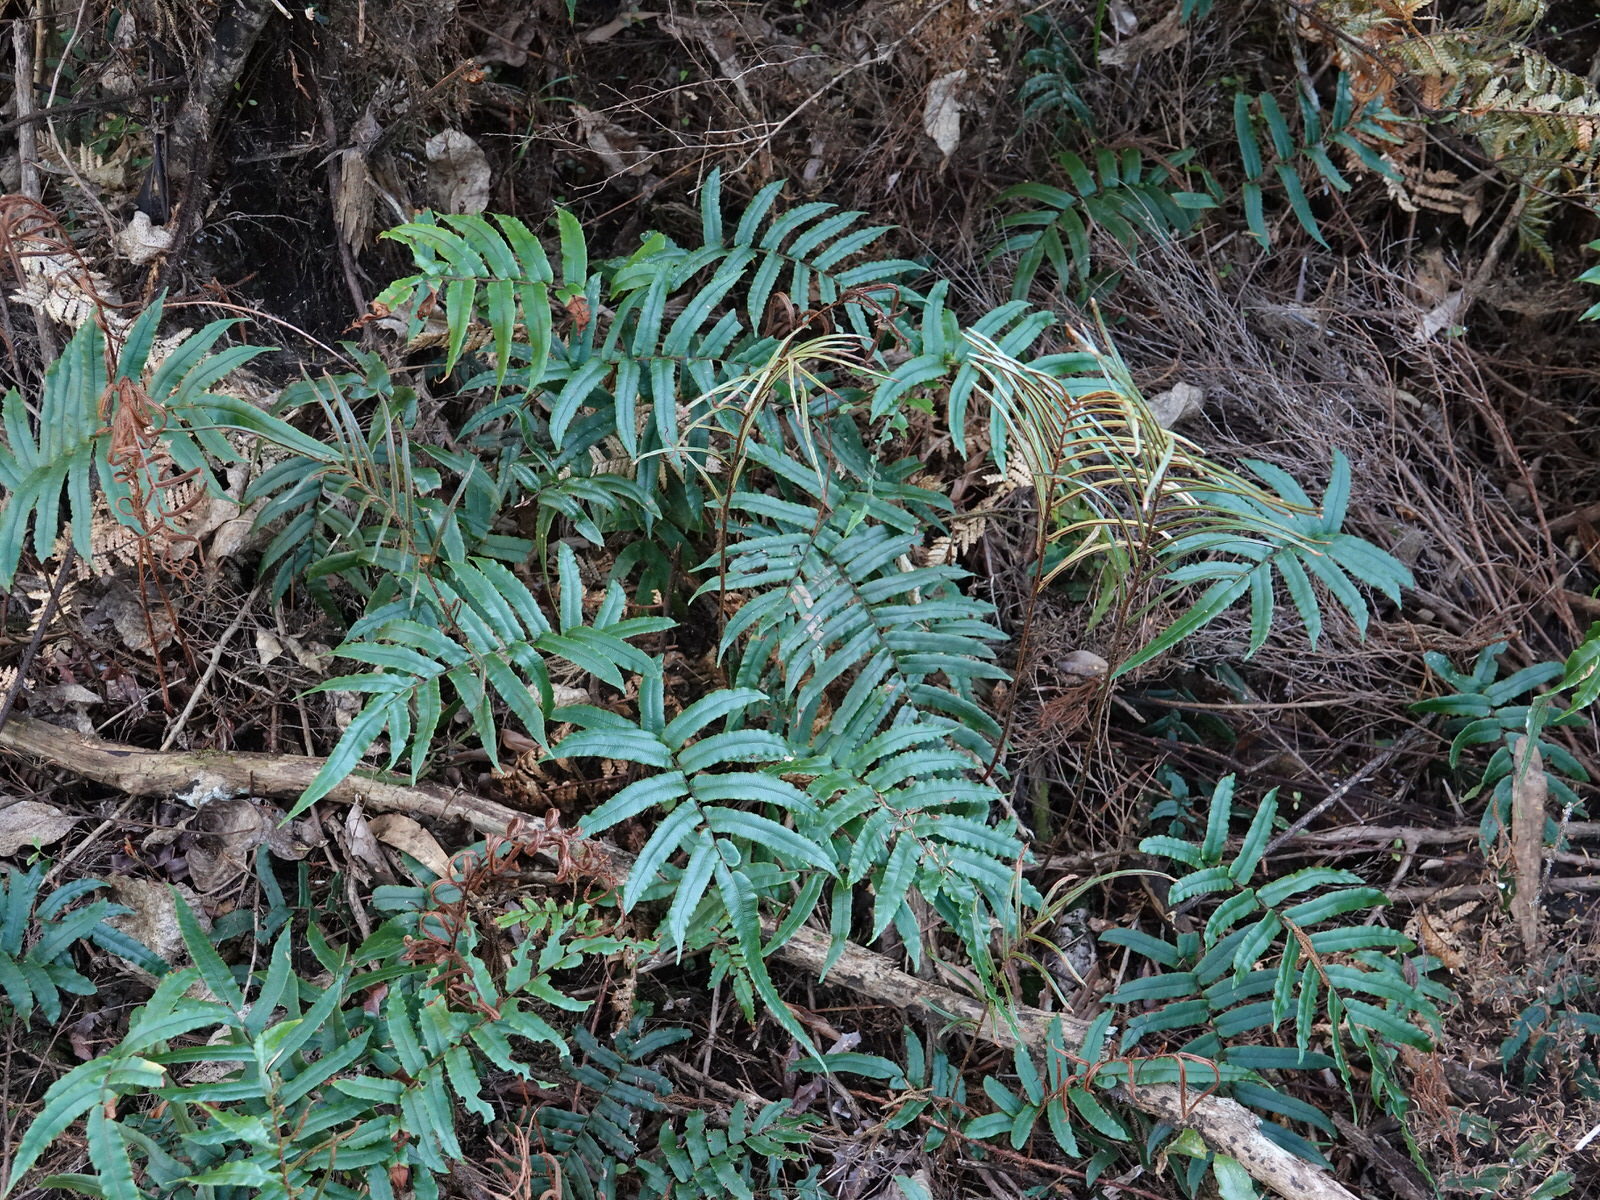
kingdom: Plantae
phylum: Tracheophyta
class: Polypodiopsida
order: Polypodiales
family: Blechnaceae
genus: Parablechnum
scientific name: Parablechnum procerum
